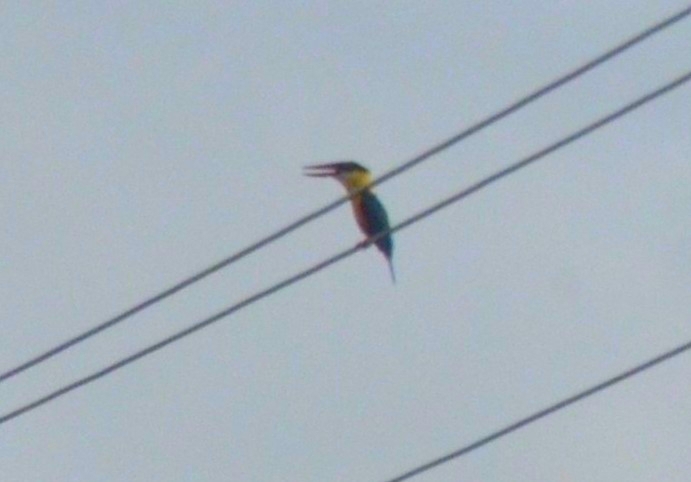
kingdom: Animalia
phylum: Chordata
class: Aves
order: Coraciiformes
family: Alcedinidae
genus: Pelargopsis
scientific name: Pelargopsis capensis
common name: Stork-billed kingfisher
